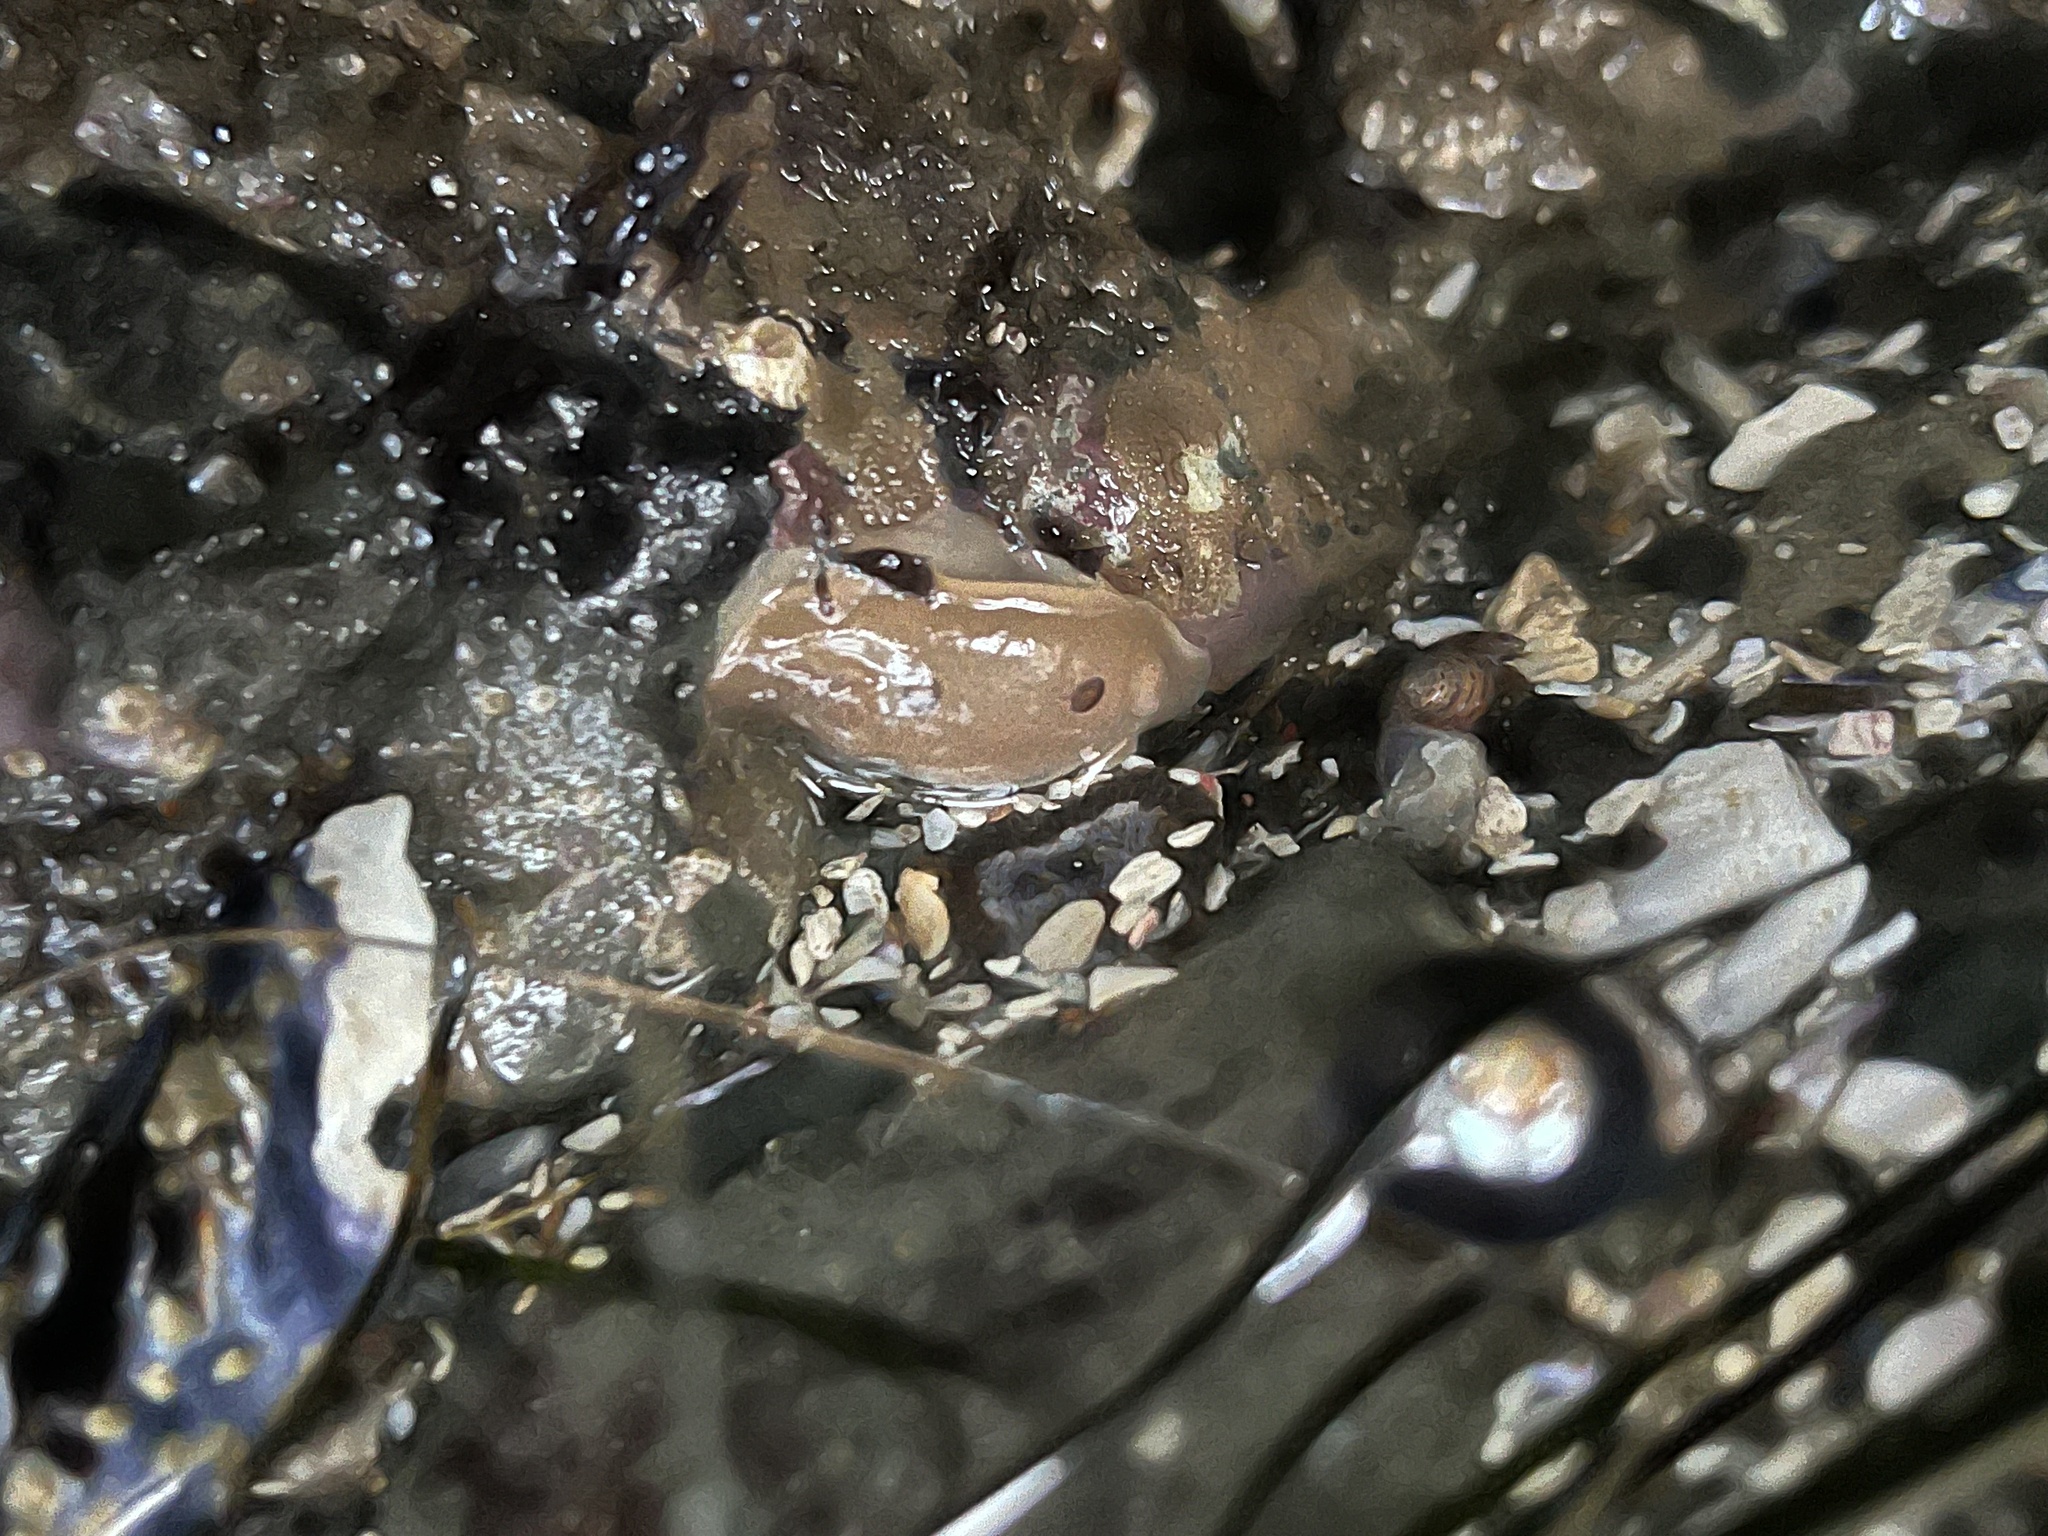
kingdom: Animalia
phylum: Mollusca
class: Gastropoda
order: Nudibranchia
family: Discodorididae
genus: Diaulula
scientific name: Diaulula sandiegensis
